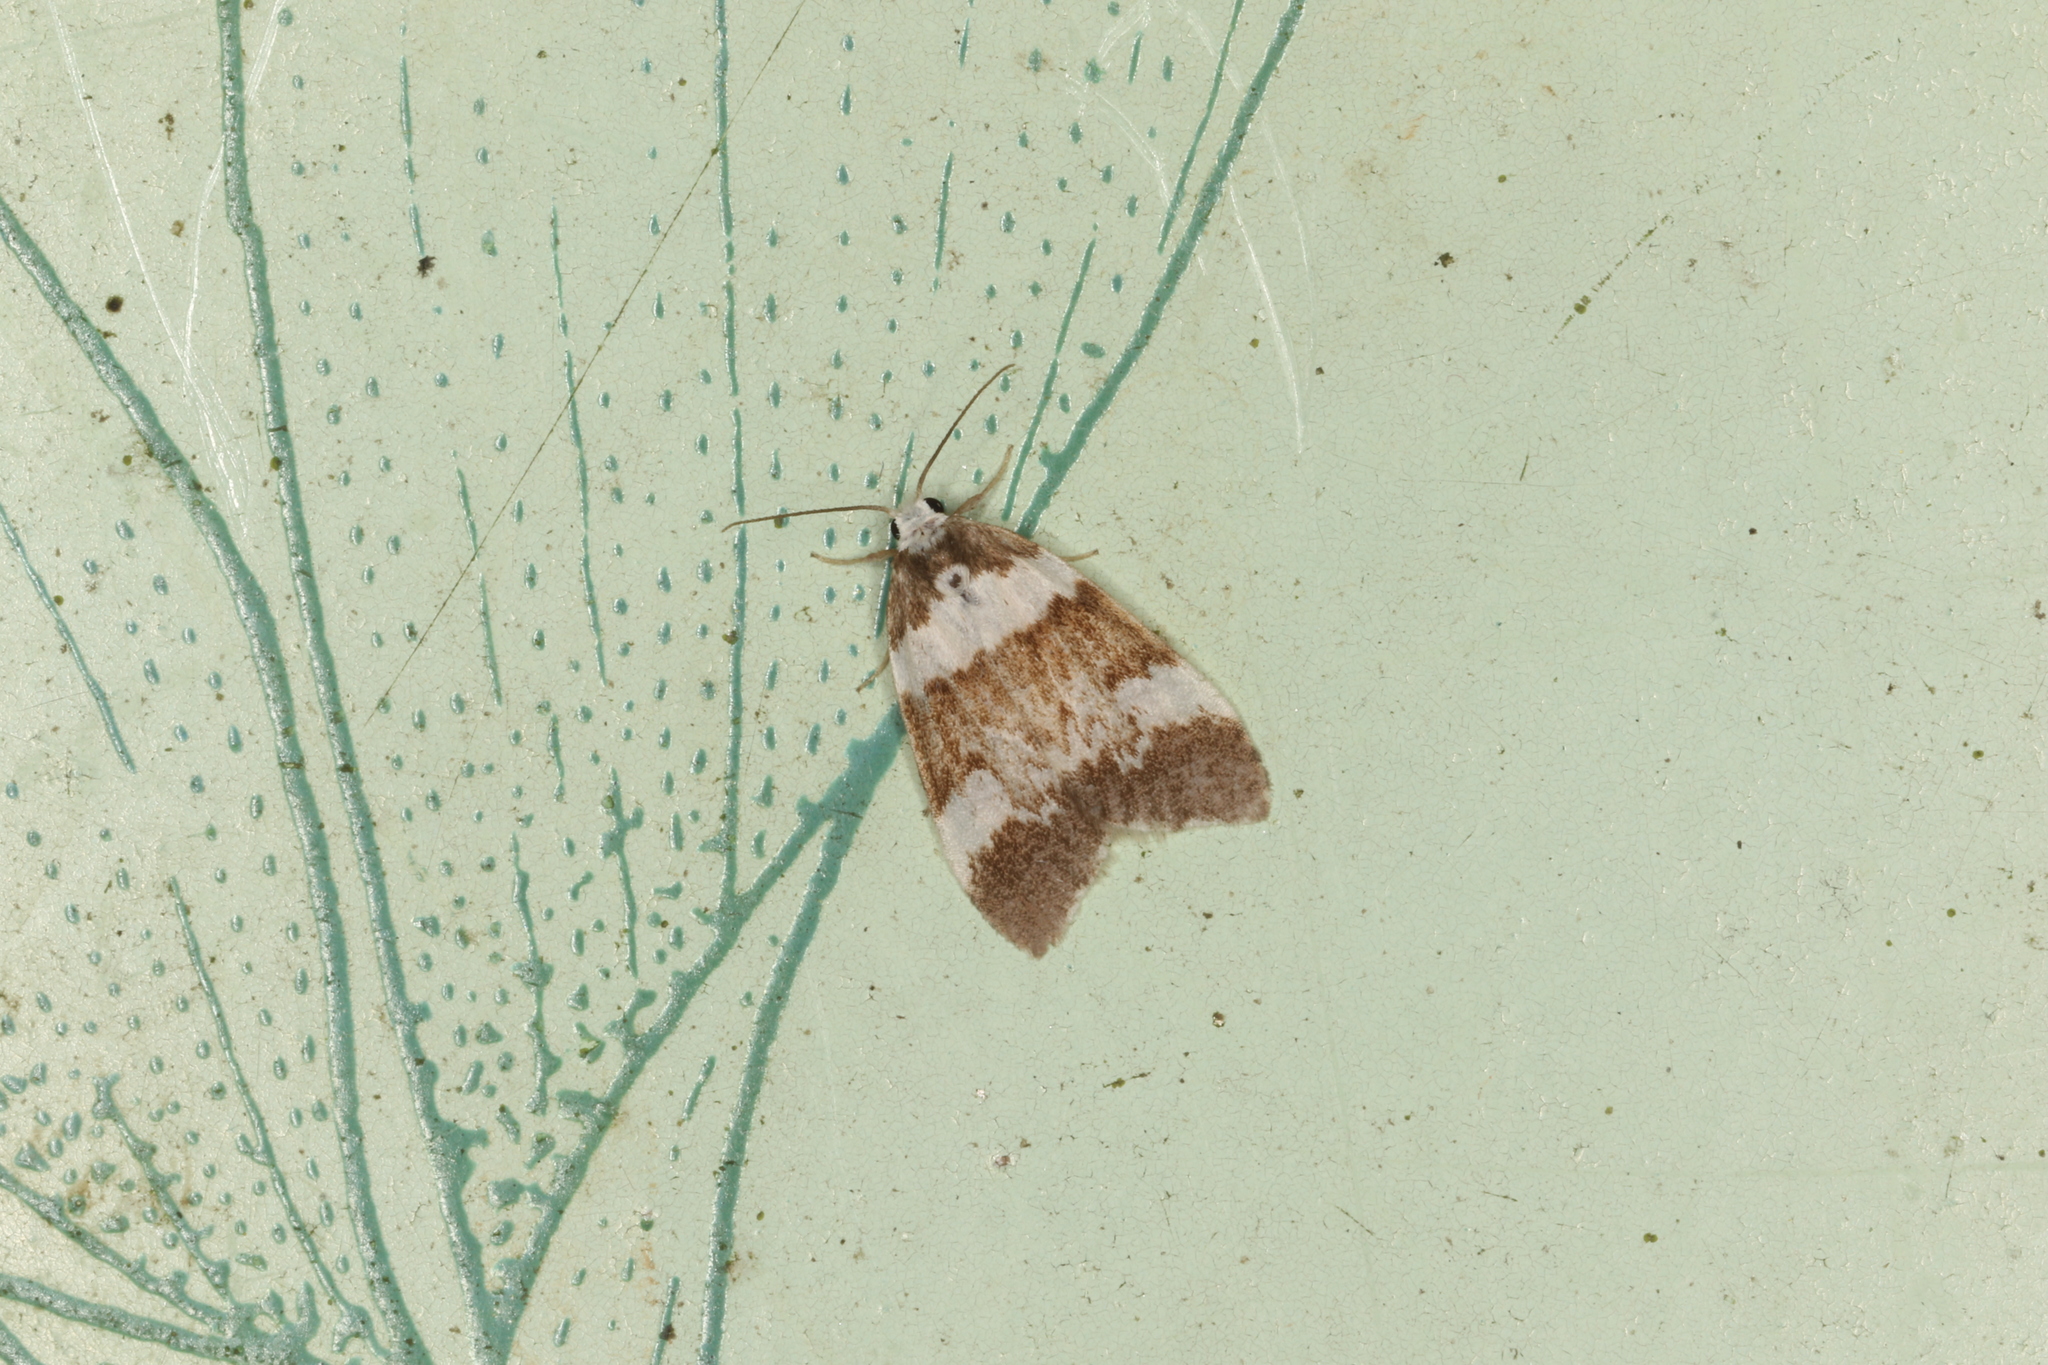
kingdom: Animalia
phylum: Arthropoda
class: Insecta
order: Lepidoptera
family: Erebidae
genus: Halone
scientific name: Halone pteridaula
